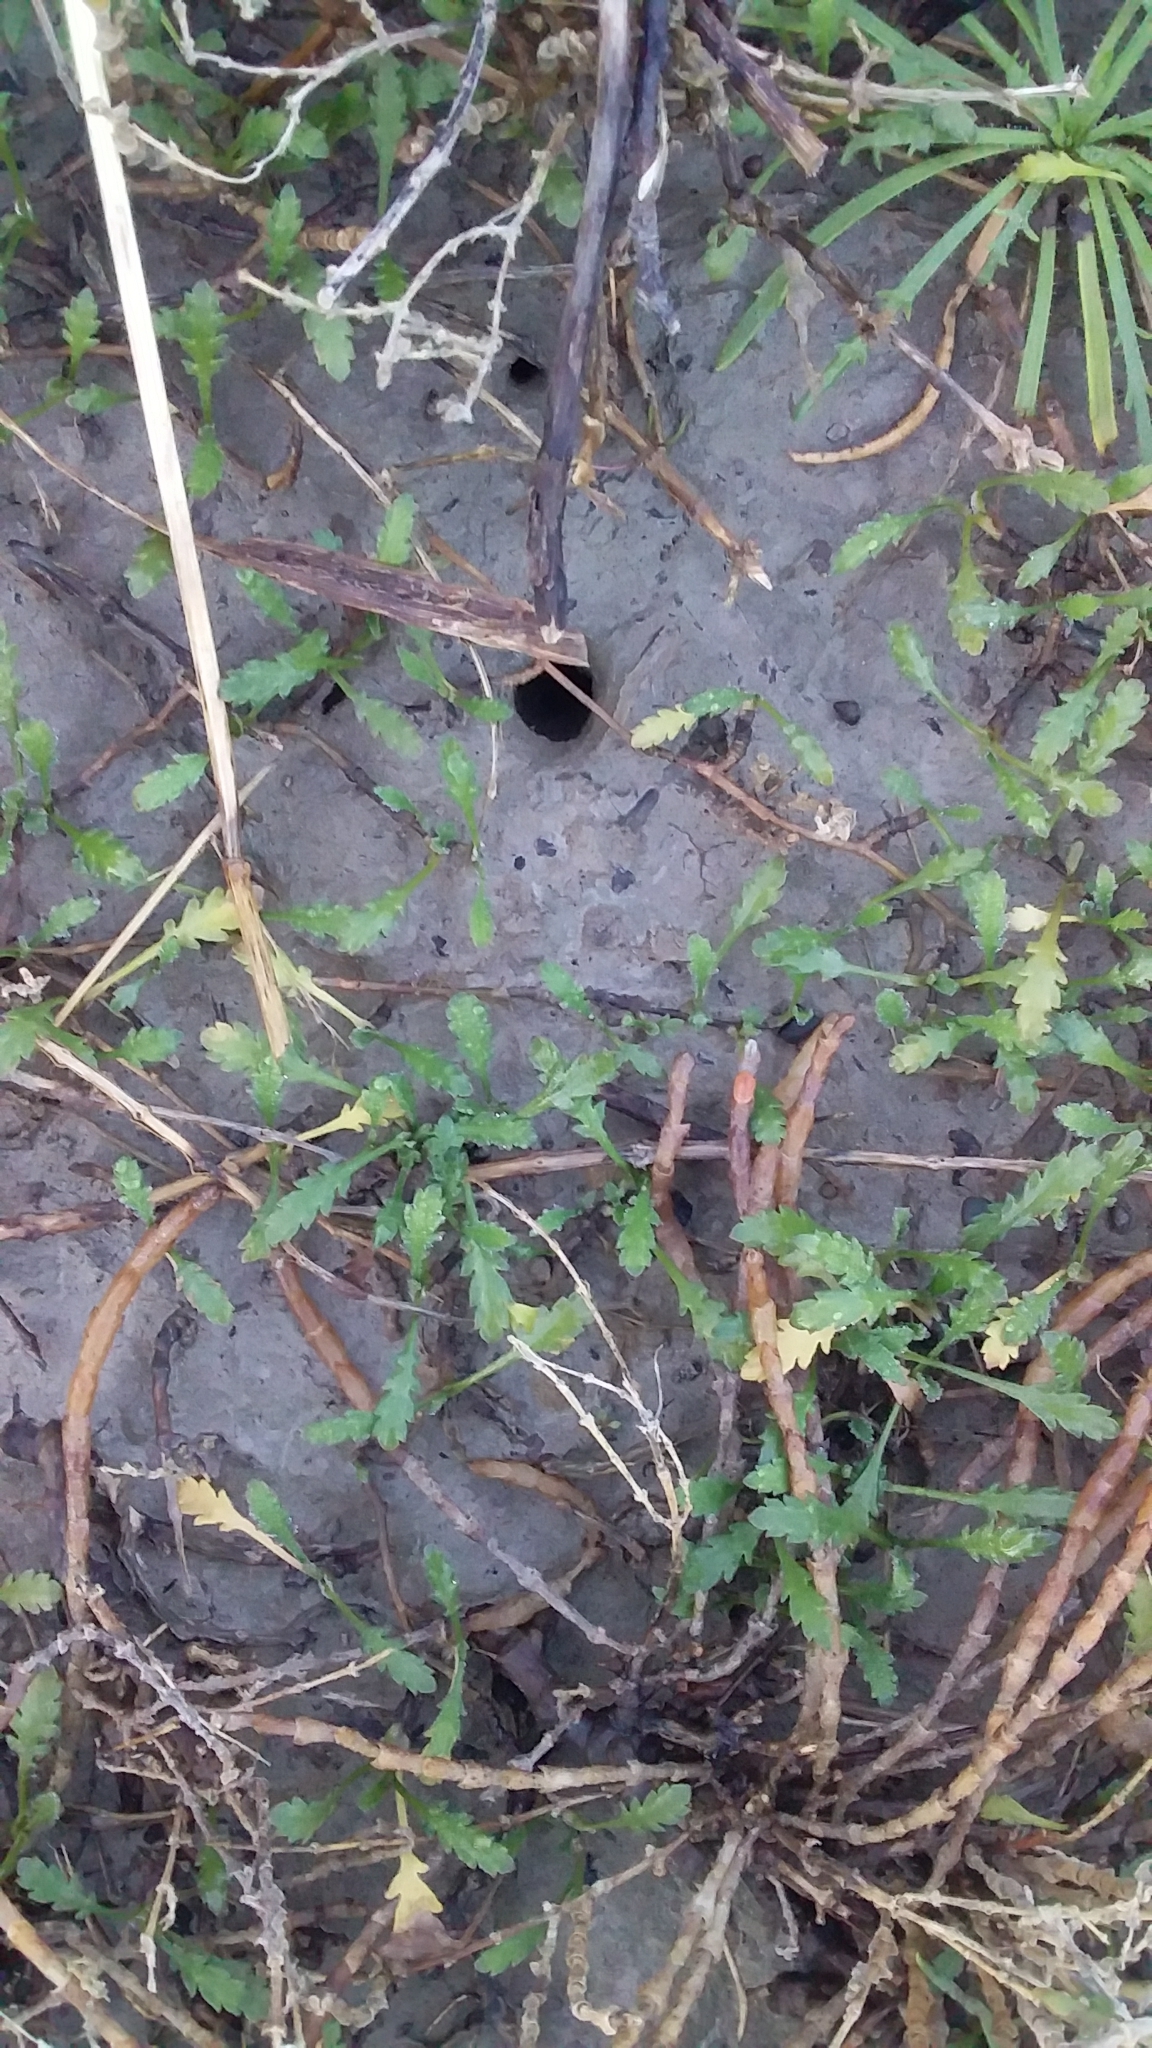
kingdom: Plantae
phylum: Tracheophyta
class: Magnoliopsida
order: Asterales
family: Asteraceae
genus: Leptinella
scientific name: Leptinella dioica
